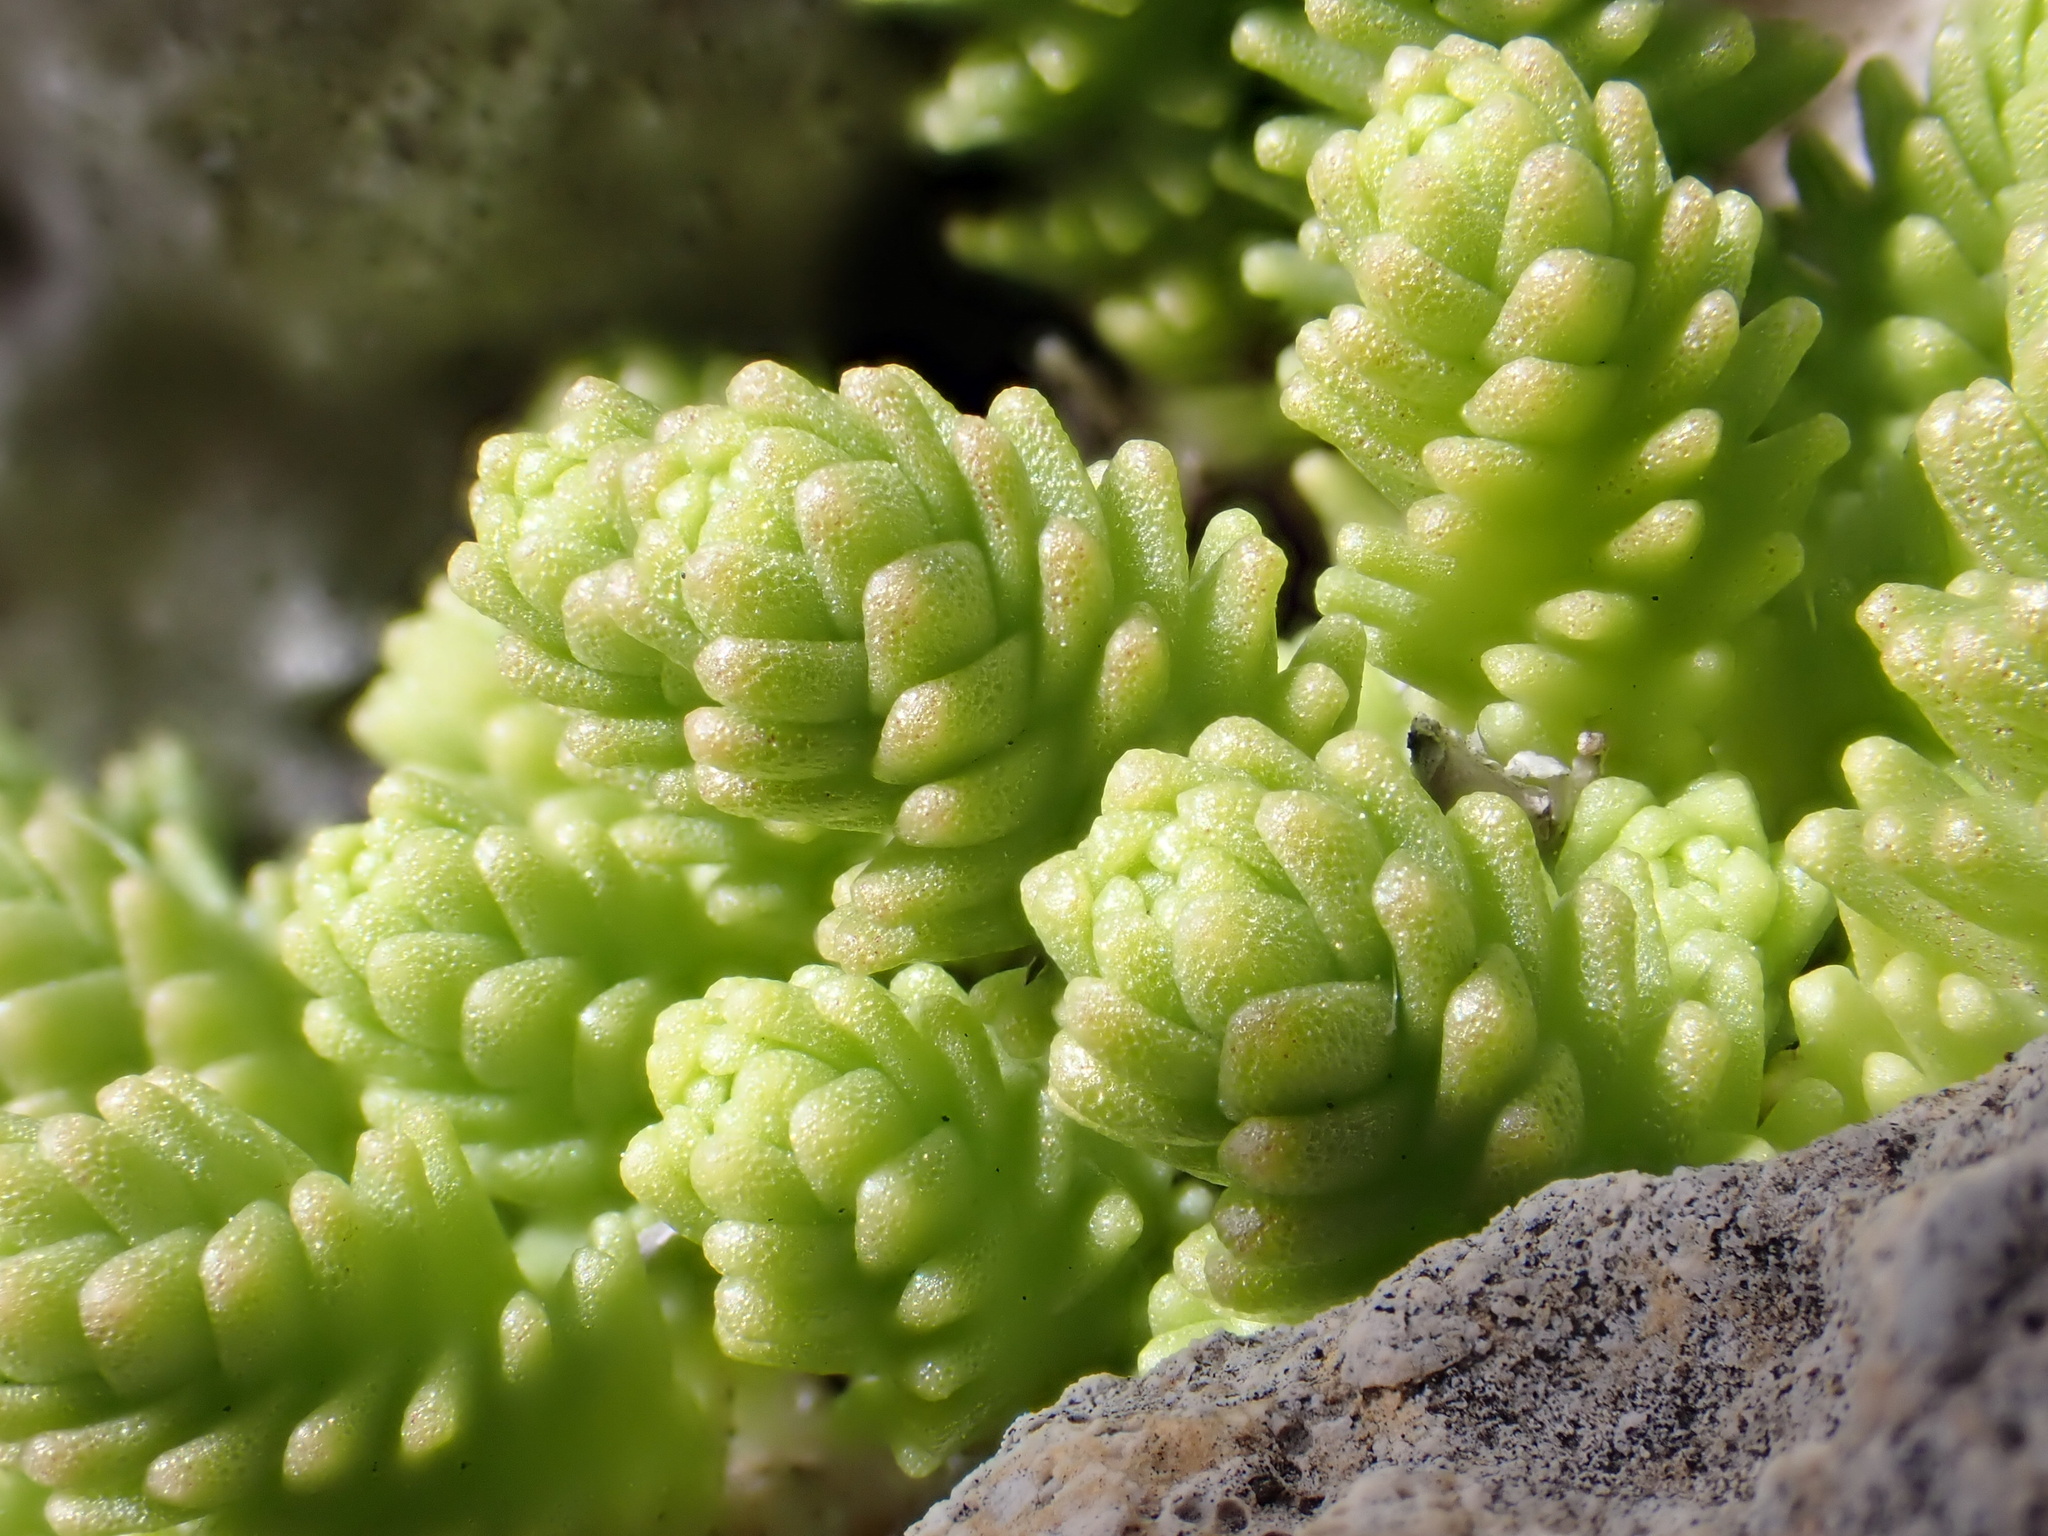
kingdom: Plantae
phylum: Tracheophyta
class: Magnoliopsida
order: Saxifragales
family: Crassulaceae
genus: Sedum
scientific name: Sedum acre
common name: Biting stonecrop
